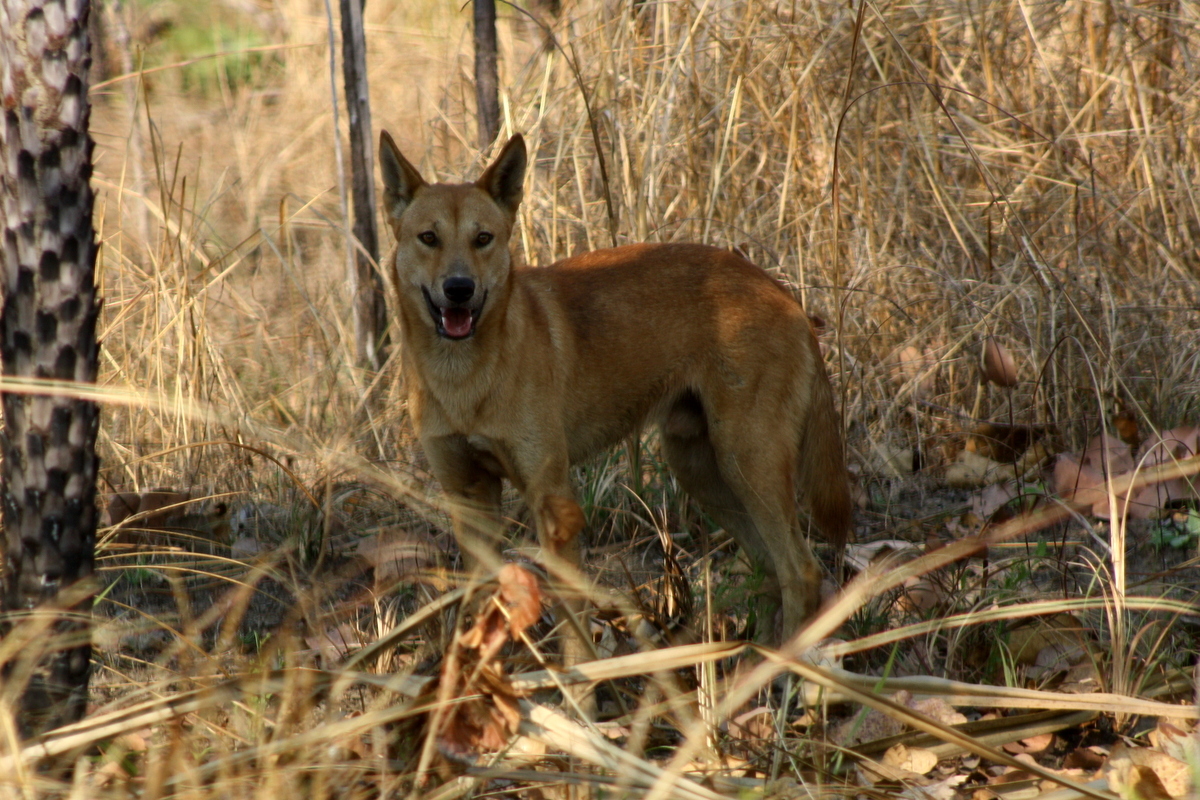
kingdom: Animalia
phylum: Chordata
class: Mammalia
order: Carnivora
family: Canidae
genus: Canis
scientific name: Canis lupus
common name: Gray wolf
